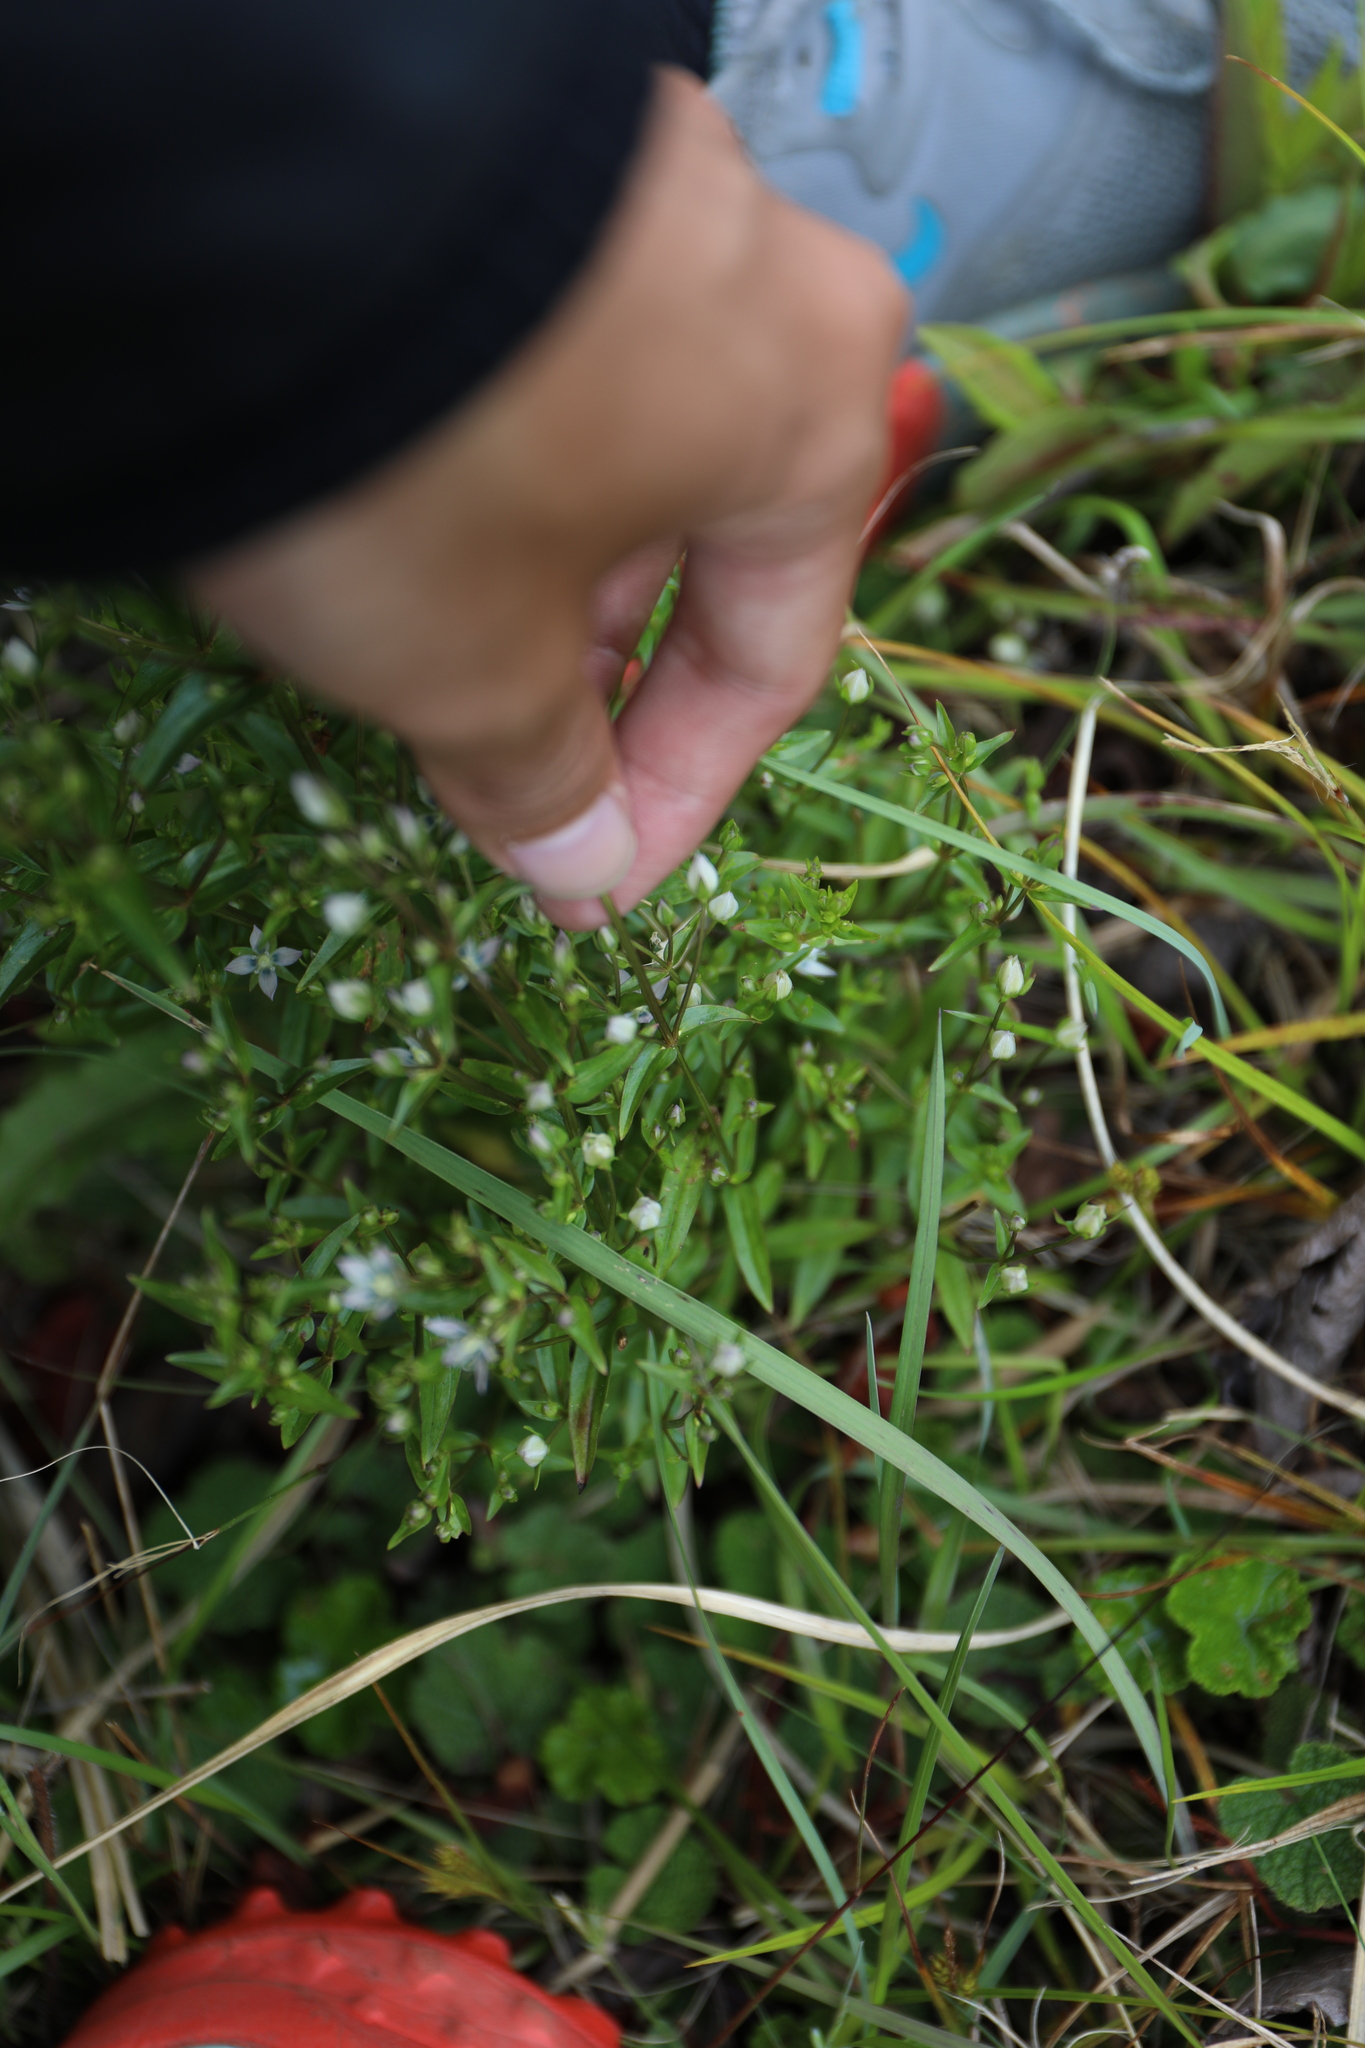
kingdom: Plantae
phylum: Tracheophyta
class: Magnoliopsida
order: Gentianales
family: Gentianaceae
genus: Swertia
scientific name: Swertia macrosperma
